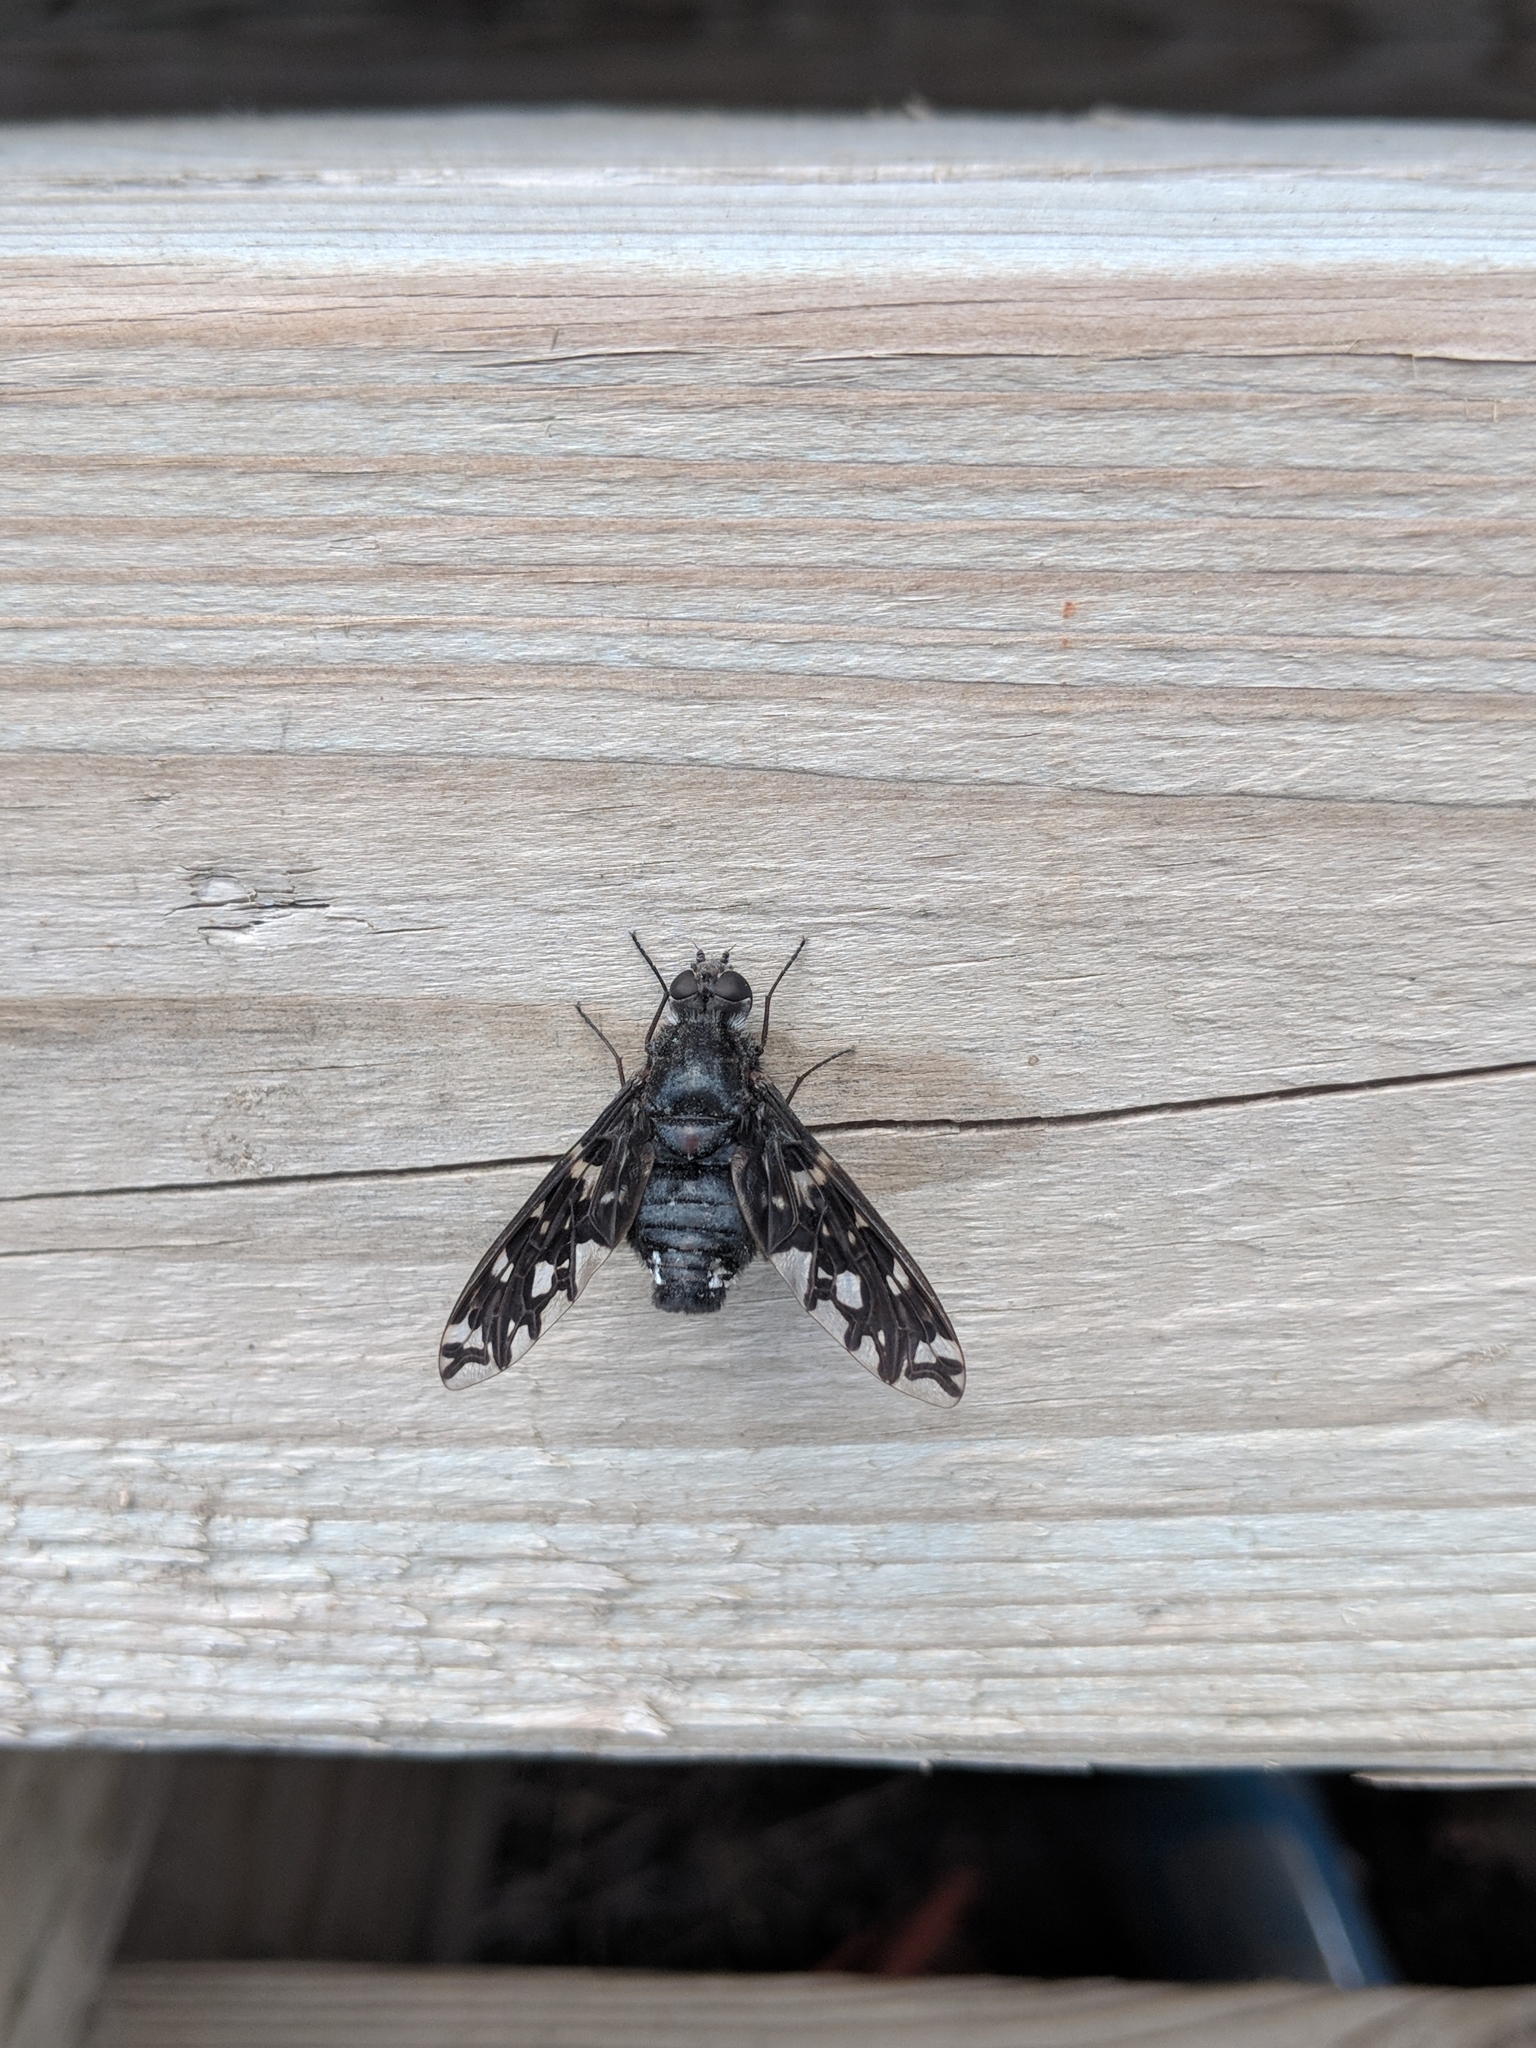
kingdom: Animalia
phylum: Arthropoda
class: Insecta
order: Diptera
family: Bombyliidae
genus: Xenox
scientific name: Xenox tigrinus
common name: Tiger bee fly
